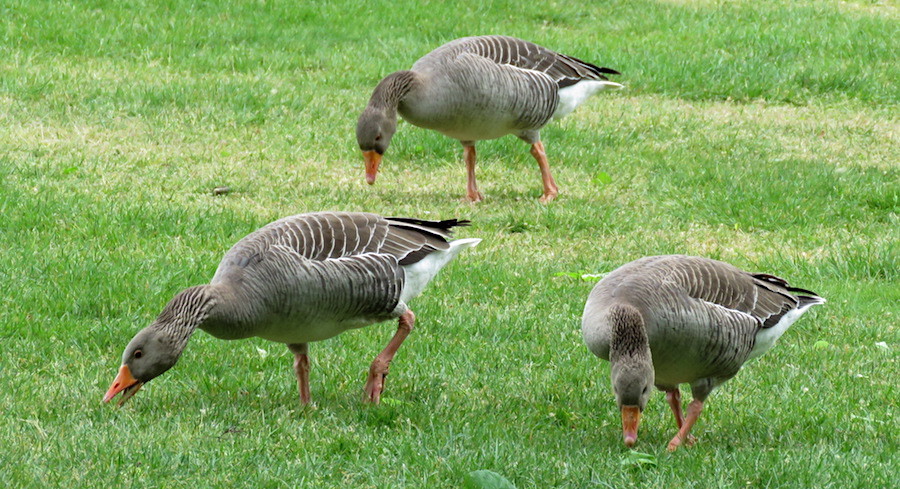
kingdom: Animalia
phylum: Chordata
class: Aves
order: Anseriformes
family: Anatidae
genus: Anser
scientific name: Anser anser
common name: Greylag goose
